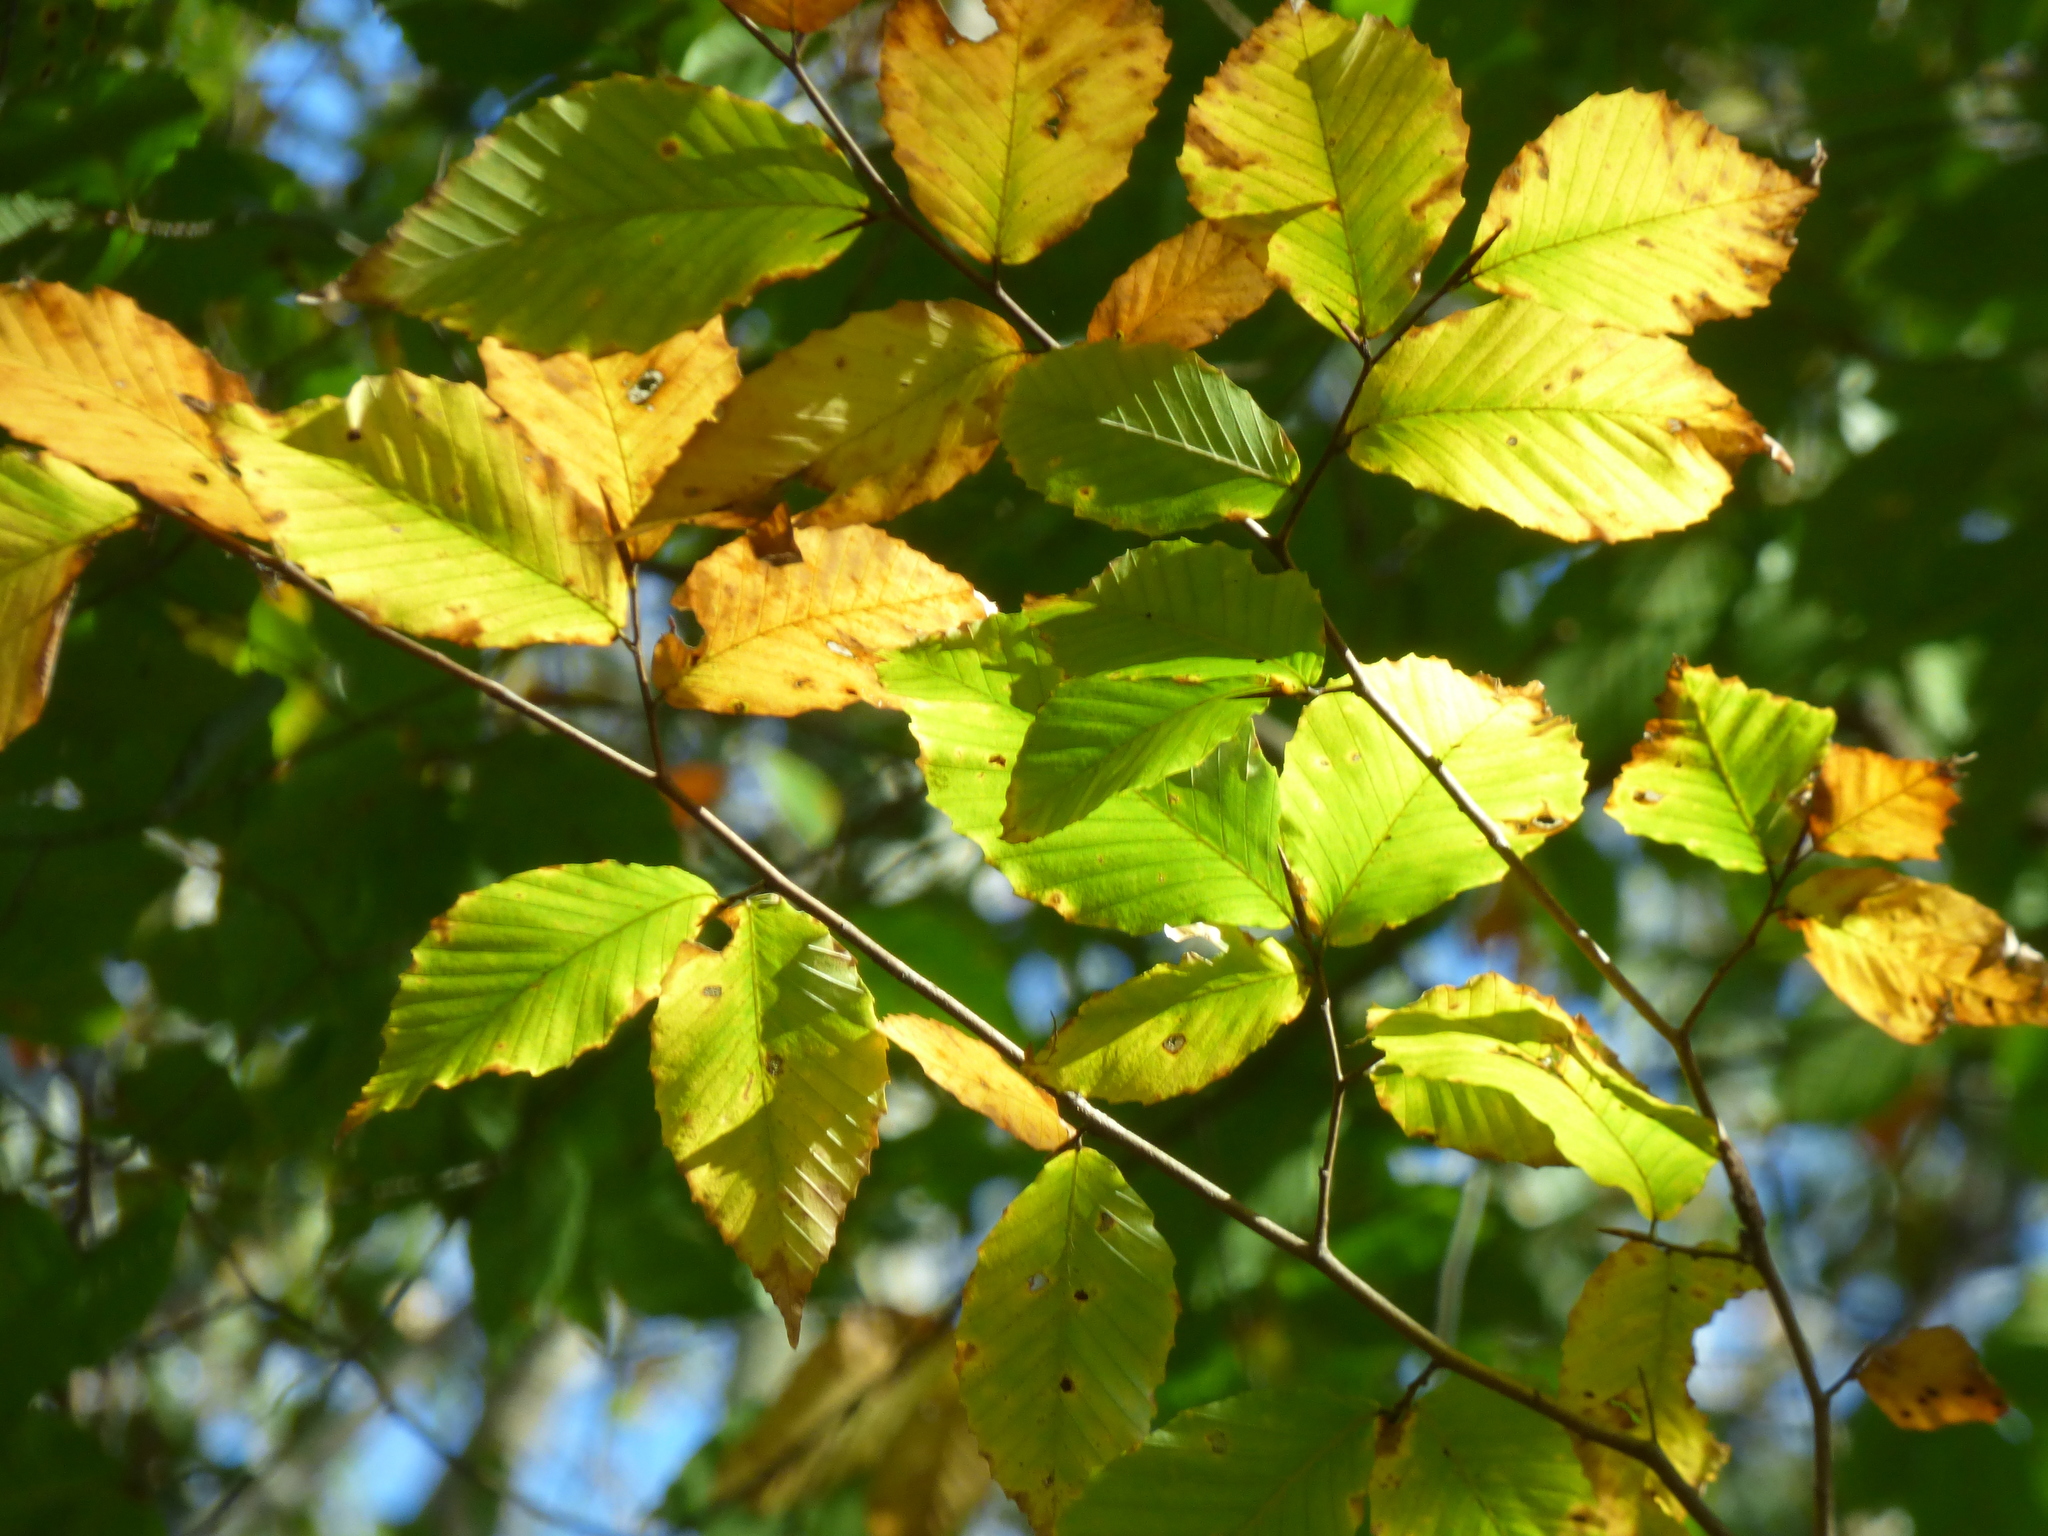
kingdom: Plantae
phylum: Tracheophyta
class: Magnoliopsida
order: Fagales
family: Fagaceae
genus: Fagus
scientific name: Fagus grandifolia
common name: American beech
